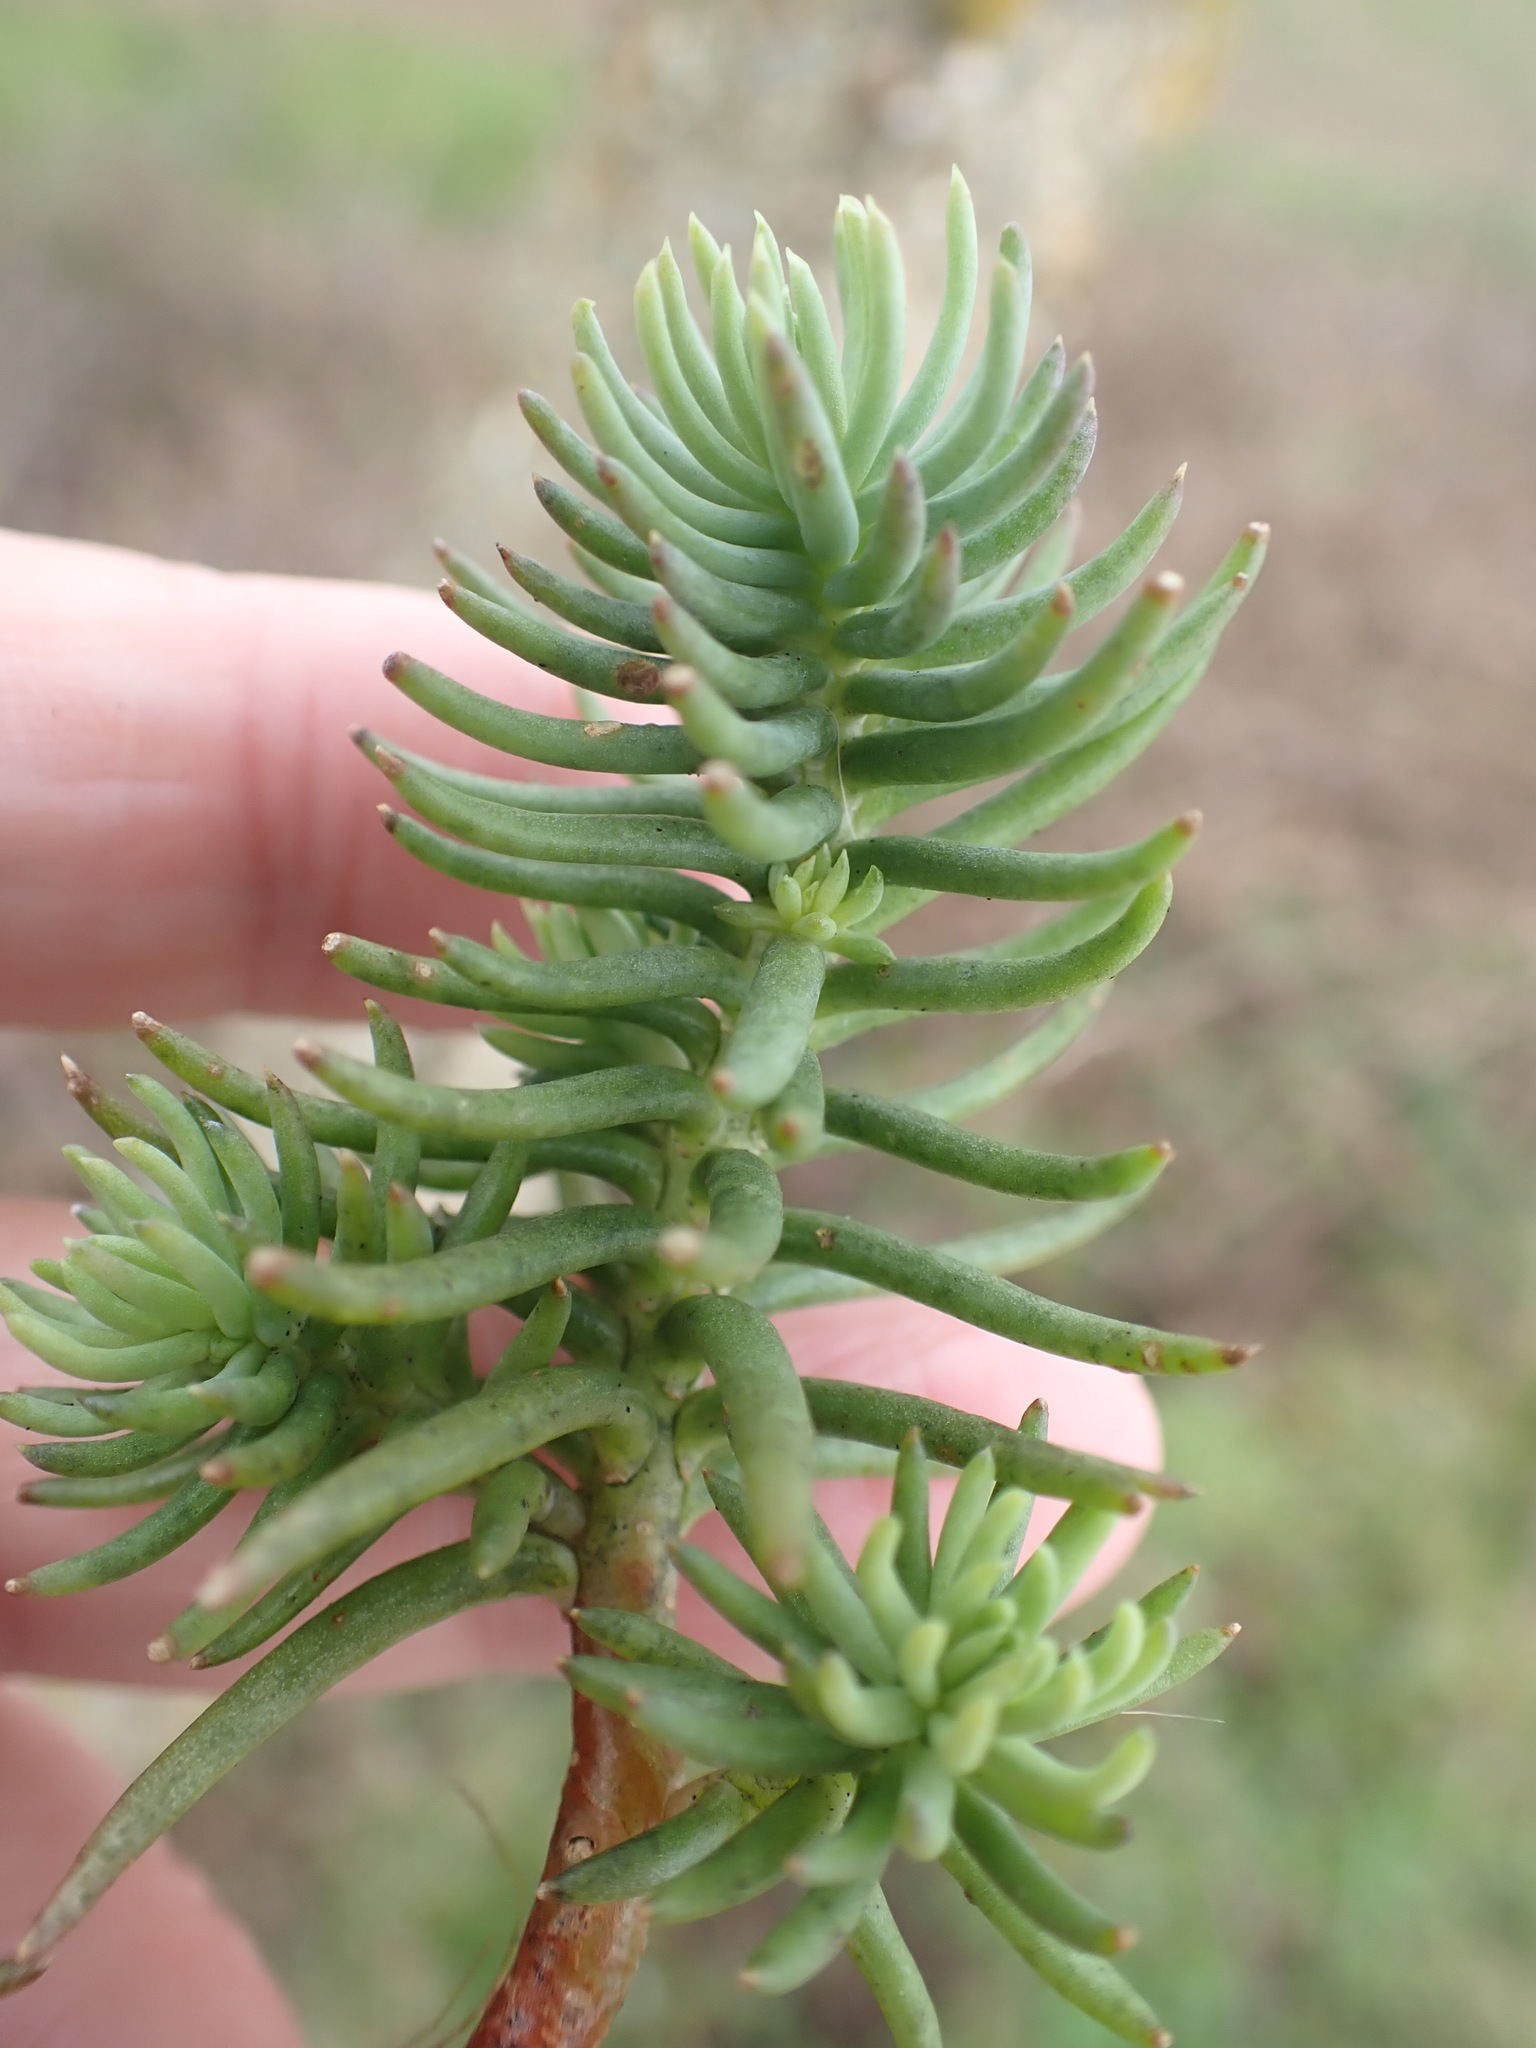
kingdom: Plantae
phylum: Tracheophyta
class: Magnoliopsida
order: Saxifragales
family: Crassulaceae
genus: Petrosedum
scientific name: Petrosedum rupestre
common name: Jenny's stonecrop
